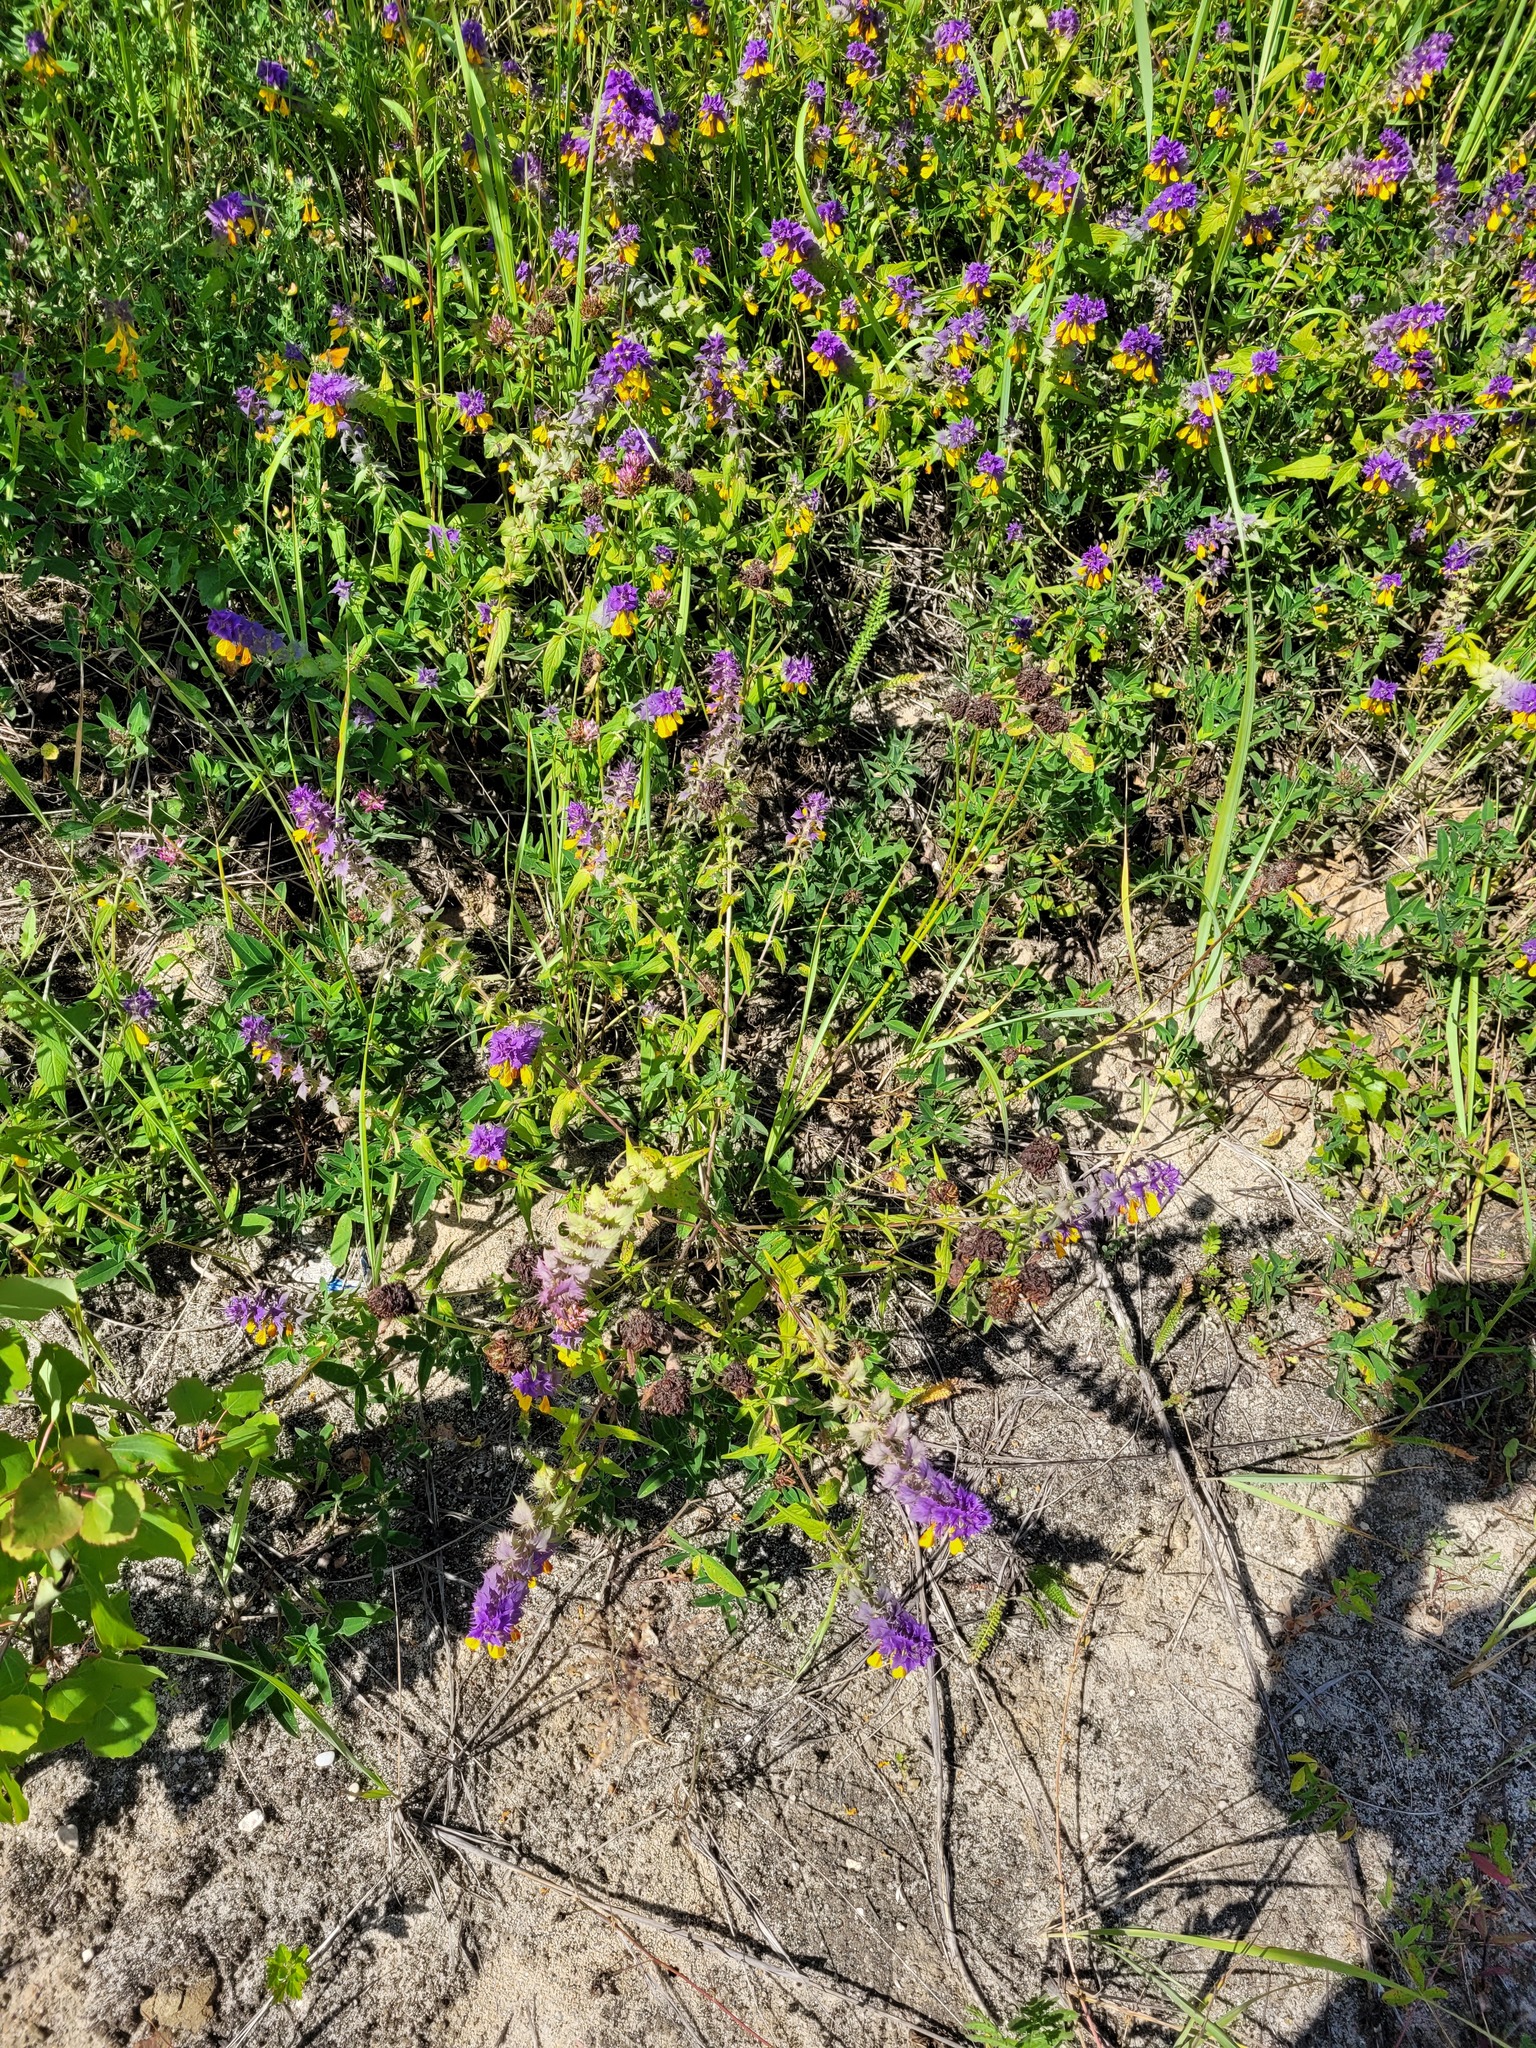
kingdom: Plantae
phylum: Tracheophyta
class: Magnoliopsida
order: Lamiales
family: Orobanchaceae
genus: Melampyrum
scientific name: Melampyrum nemorosum
